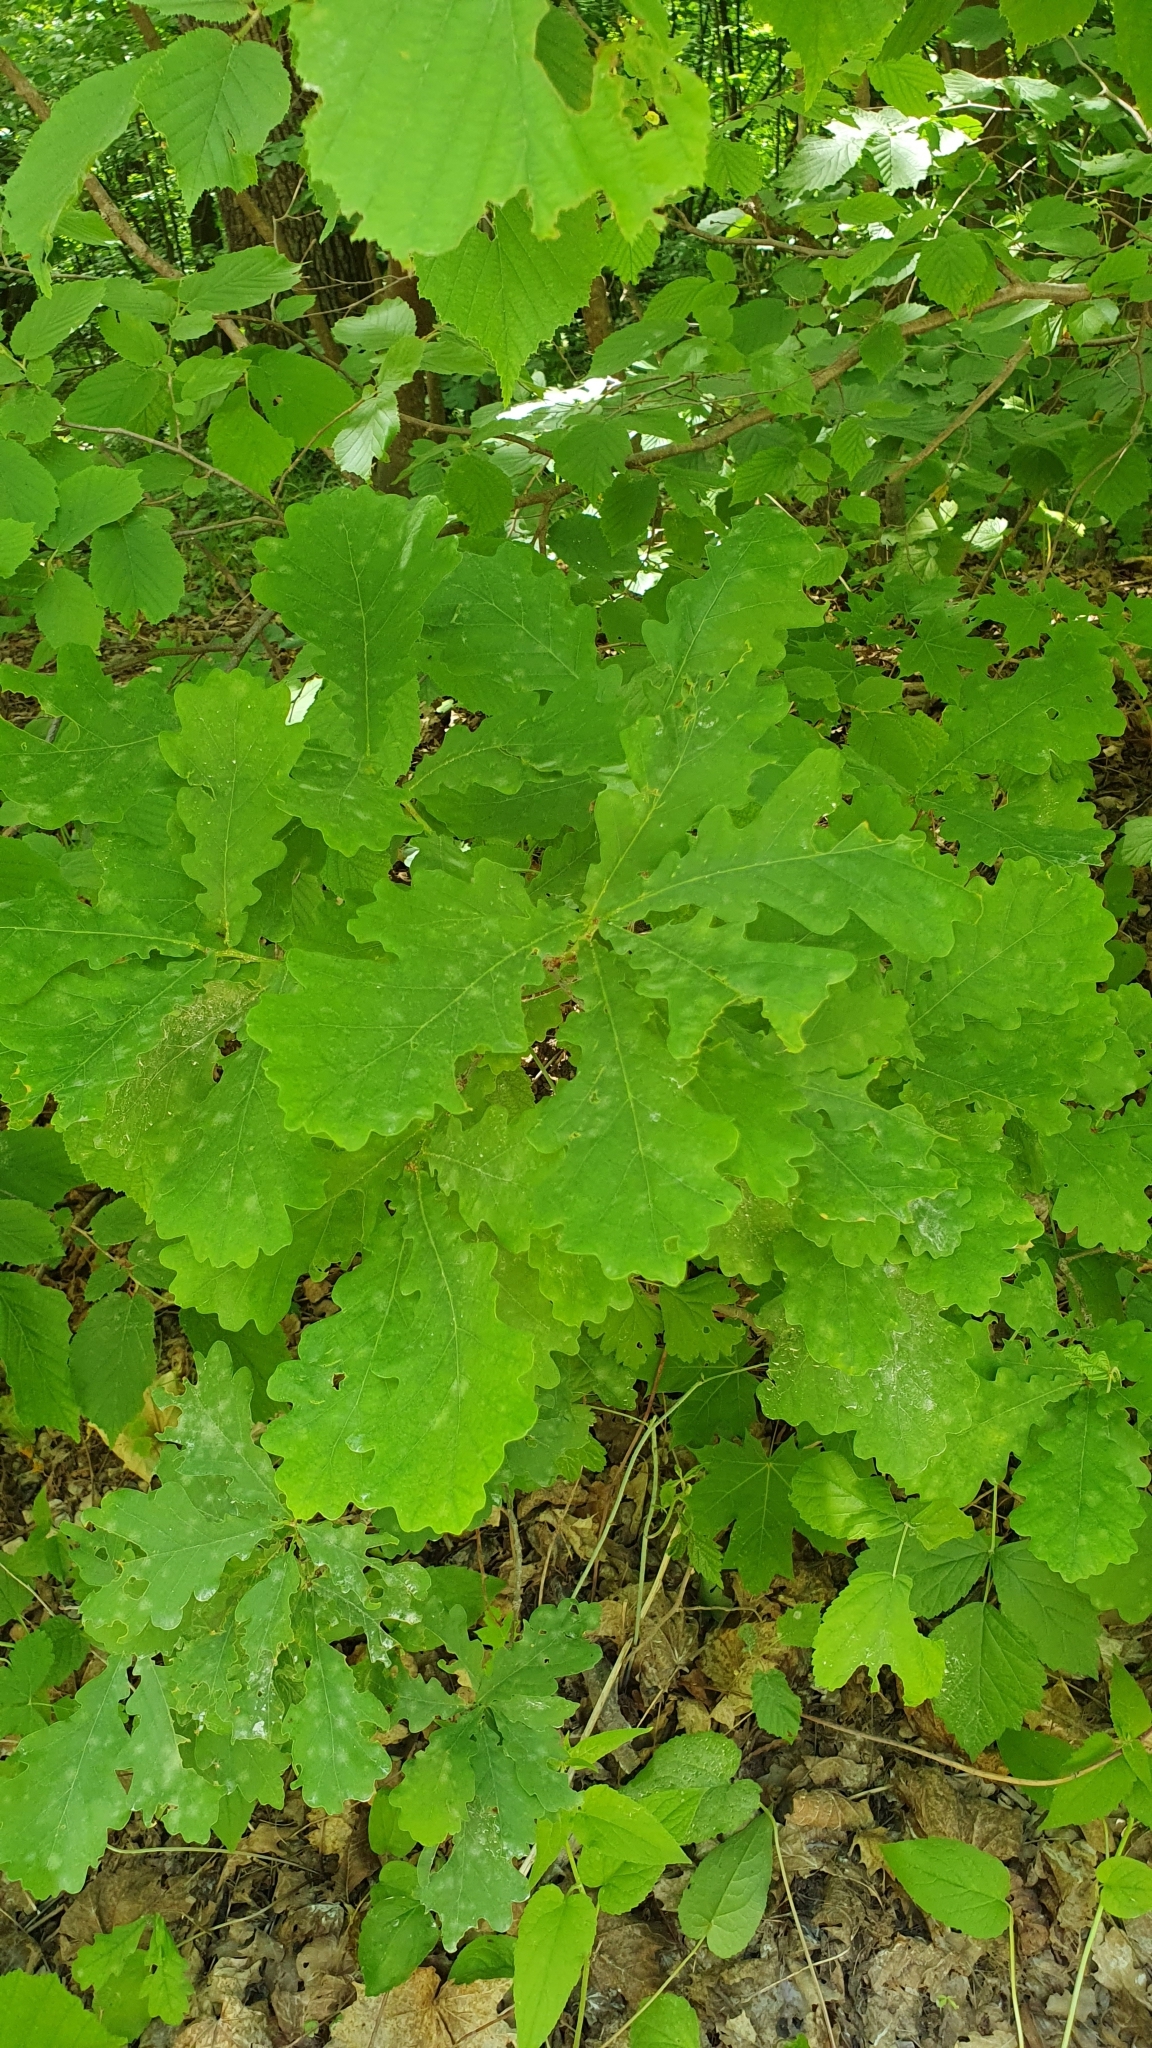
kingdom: Plantae
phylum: Tracheophyta
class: Magnoliopsida
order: Fagales
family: Fagaceae
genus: Quercus
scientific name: Quercus robur
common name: Pedunculate oak
